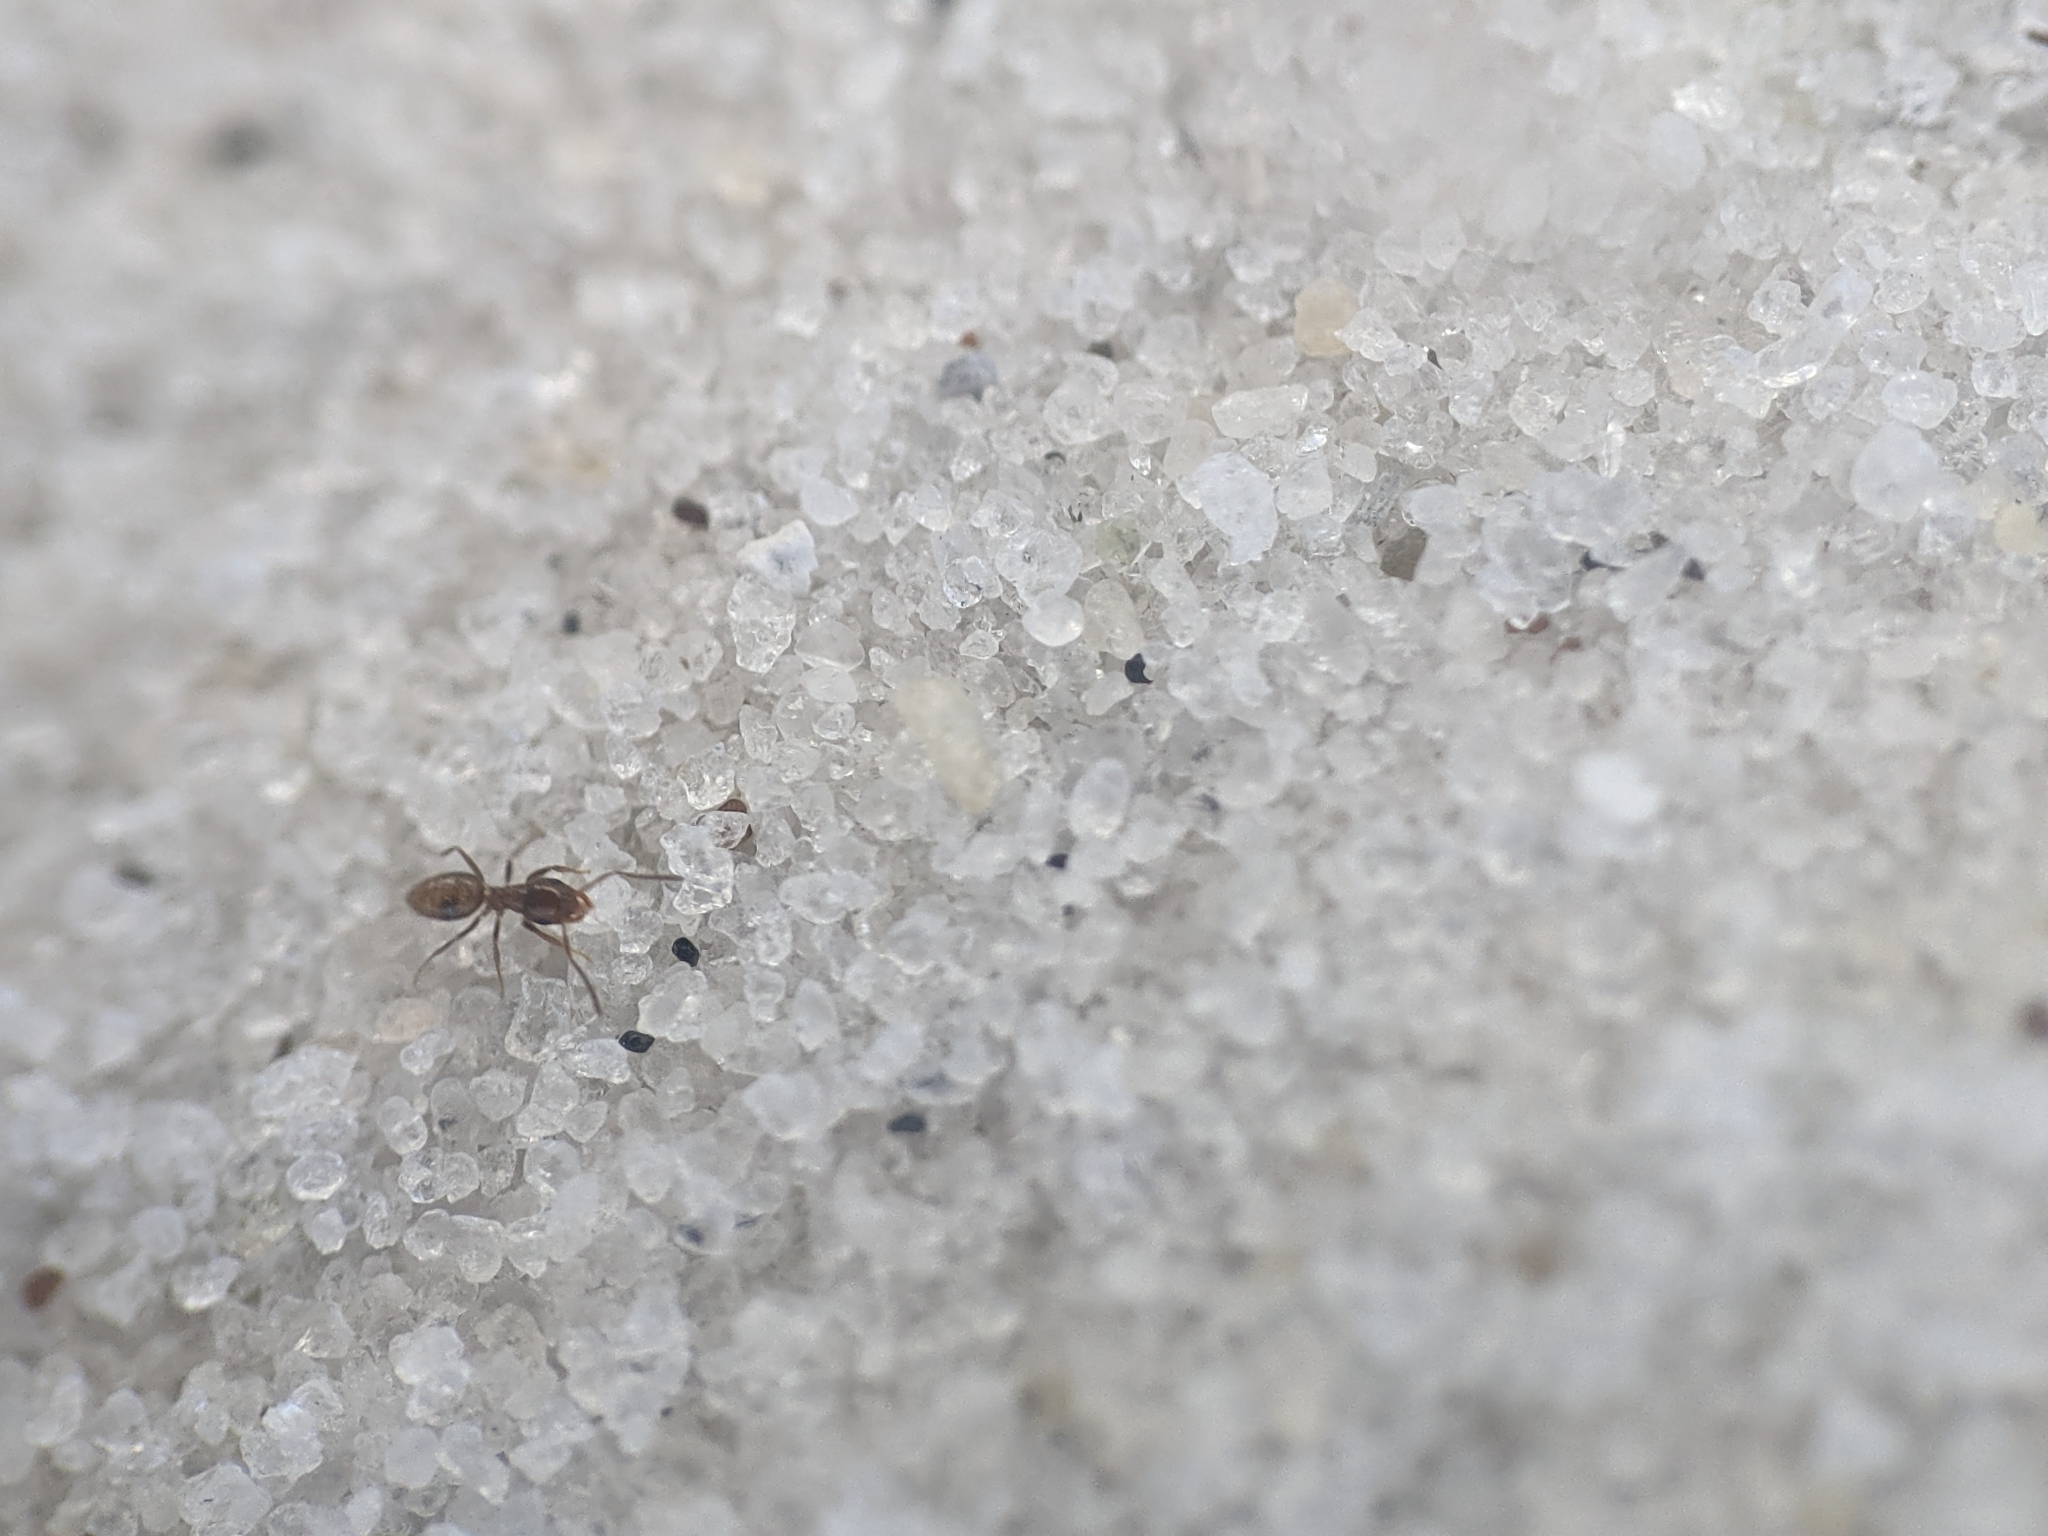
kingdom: Animalia
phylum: Arthropoda
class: Insecta
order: Hymenoptera
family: Formicidae
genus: Brachymyrmex
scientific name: Brachymyrmex patagonicus
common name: Dark rover ant
